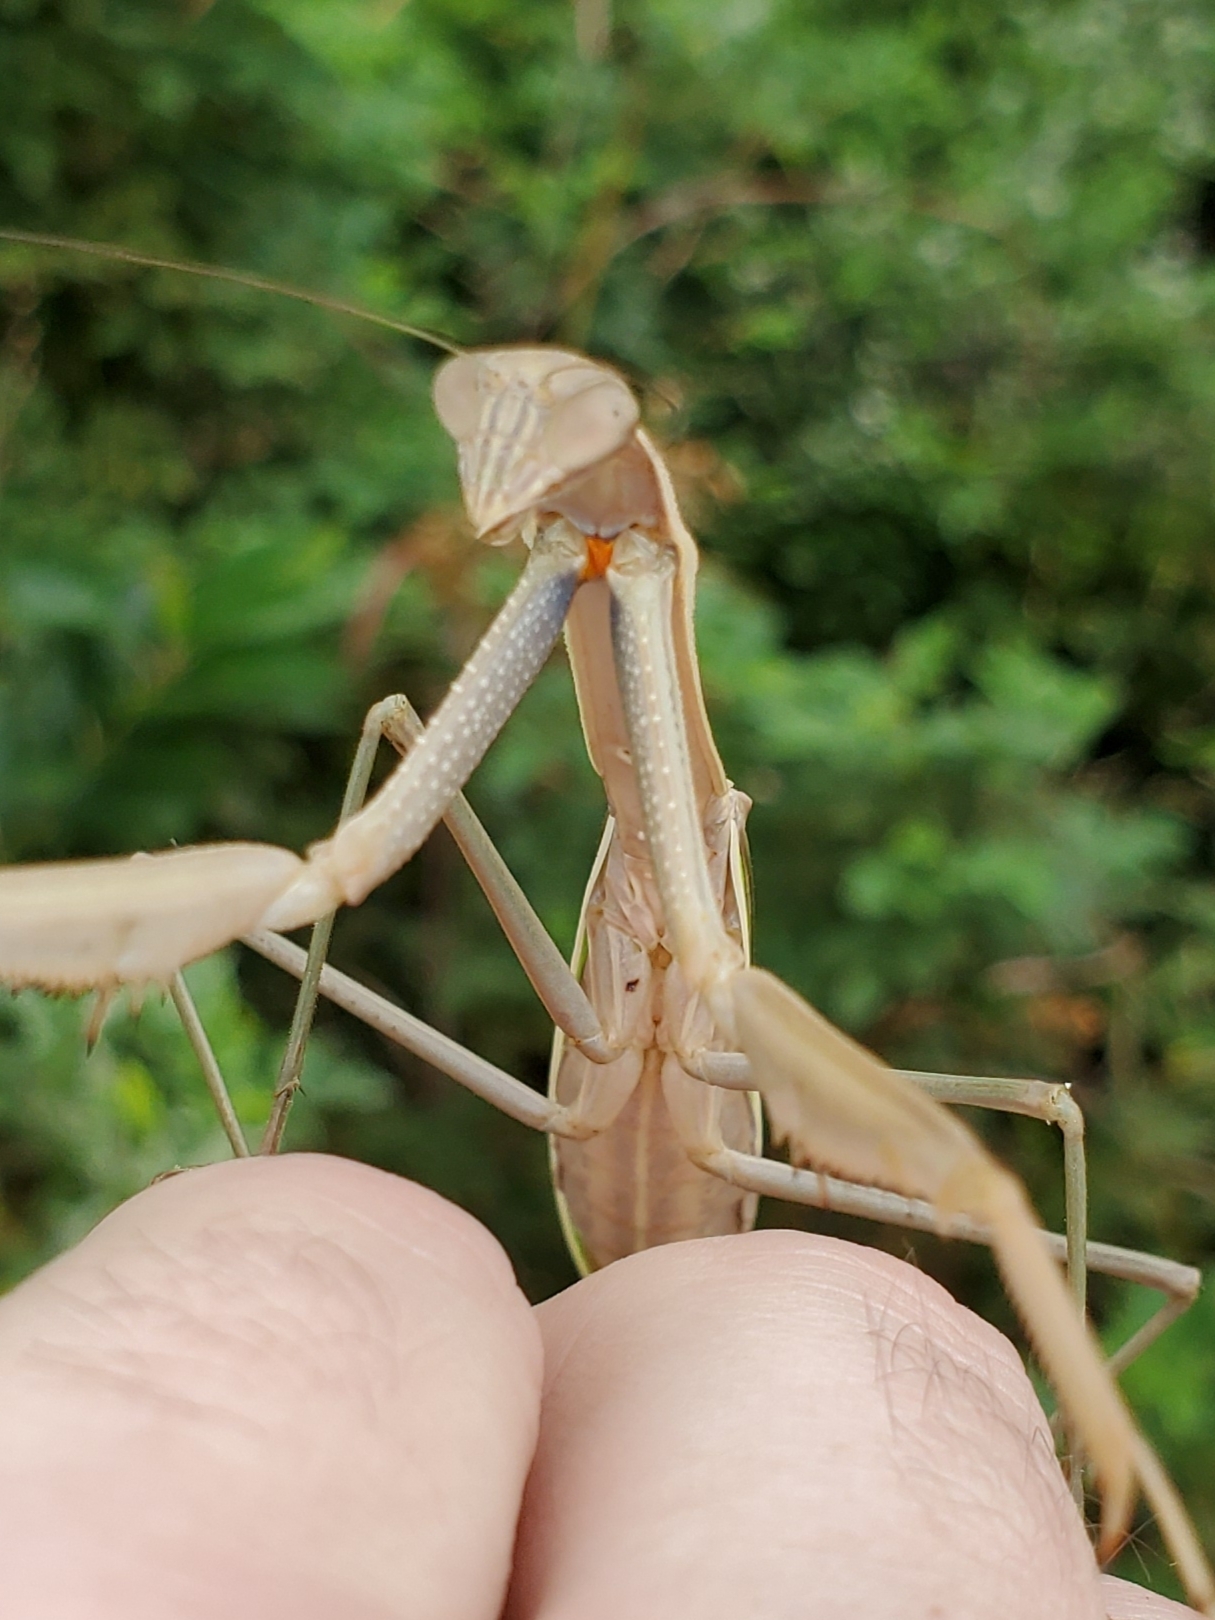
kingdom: Animalia
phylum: Arthropoda
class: Insecta
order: Mantodea
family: Mantidae
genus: Tenodera
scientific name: Tenodera angustipennis
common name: Asian mantis
